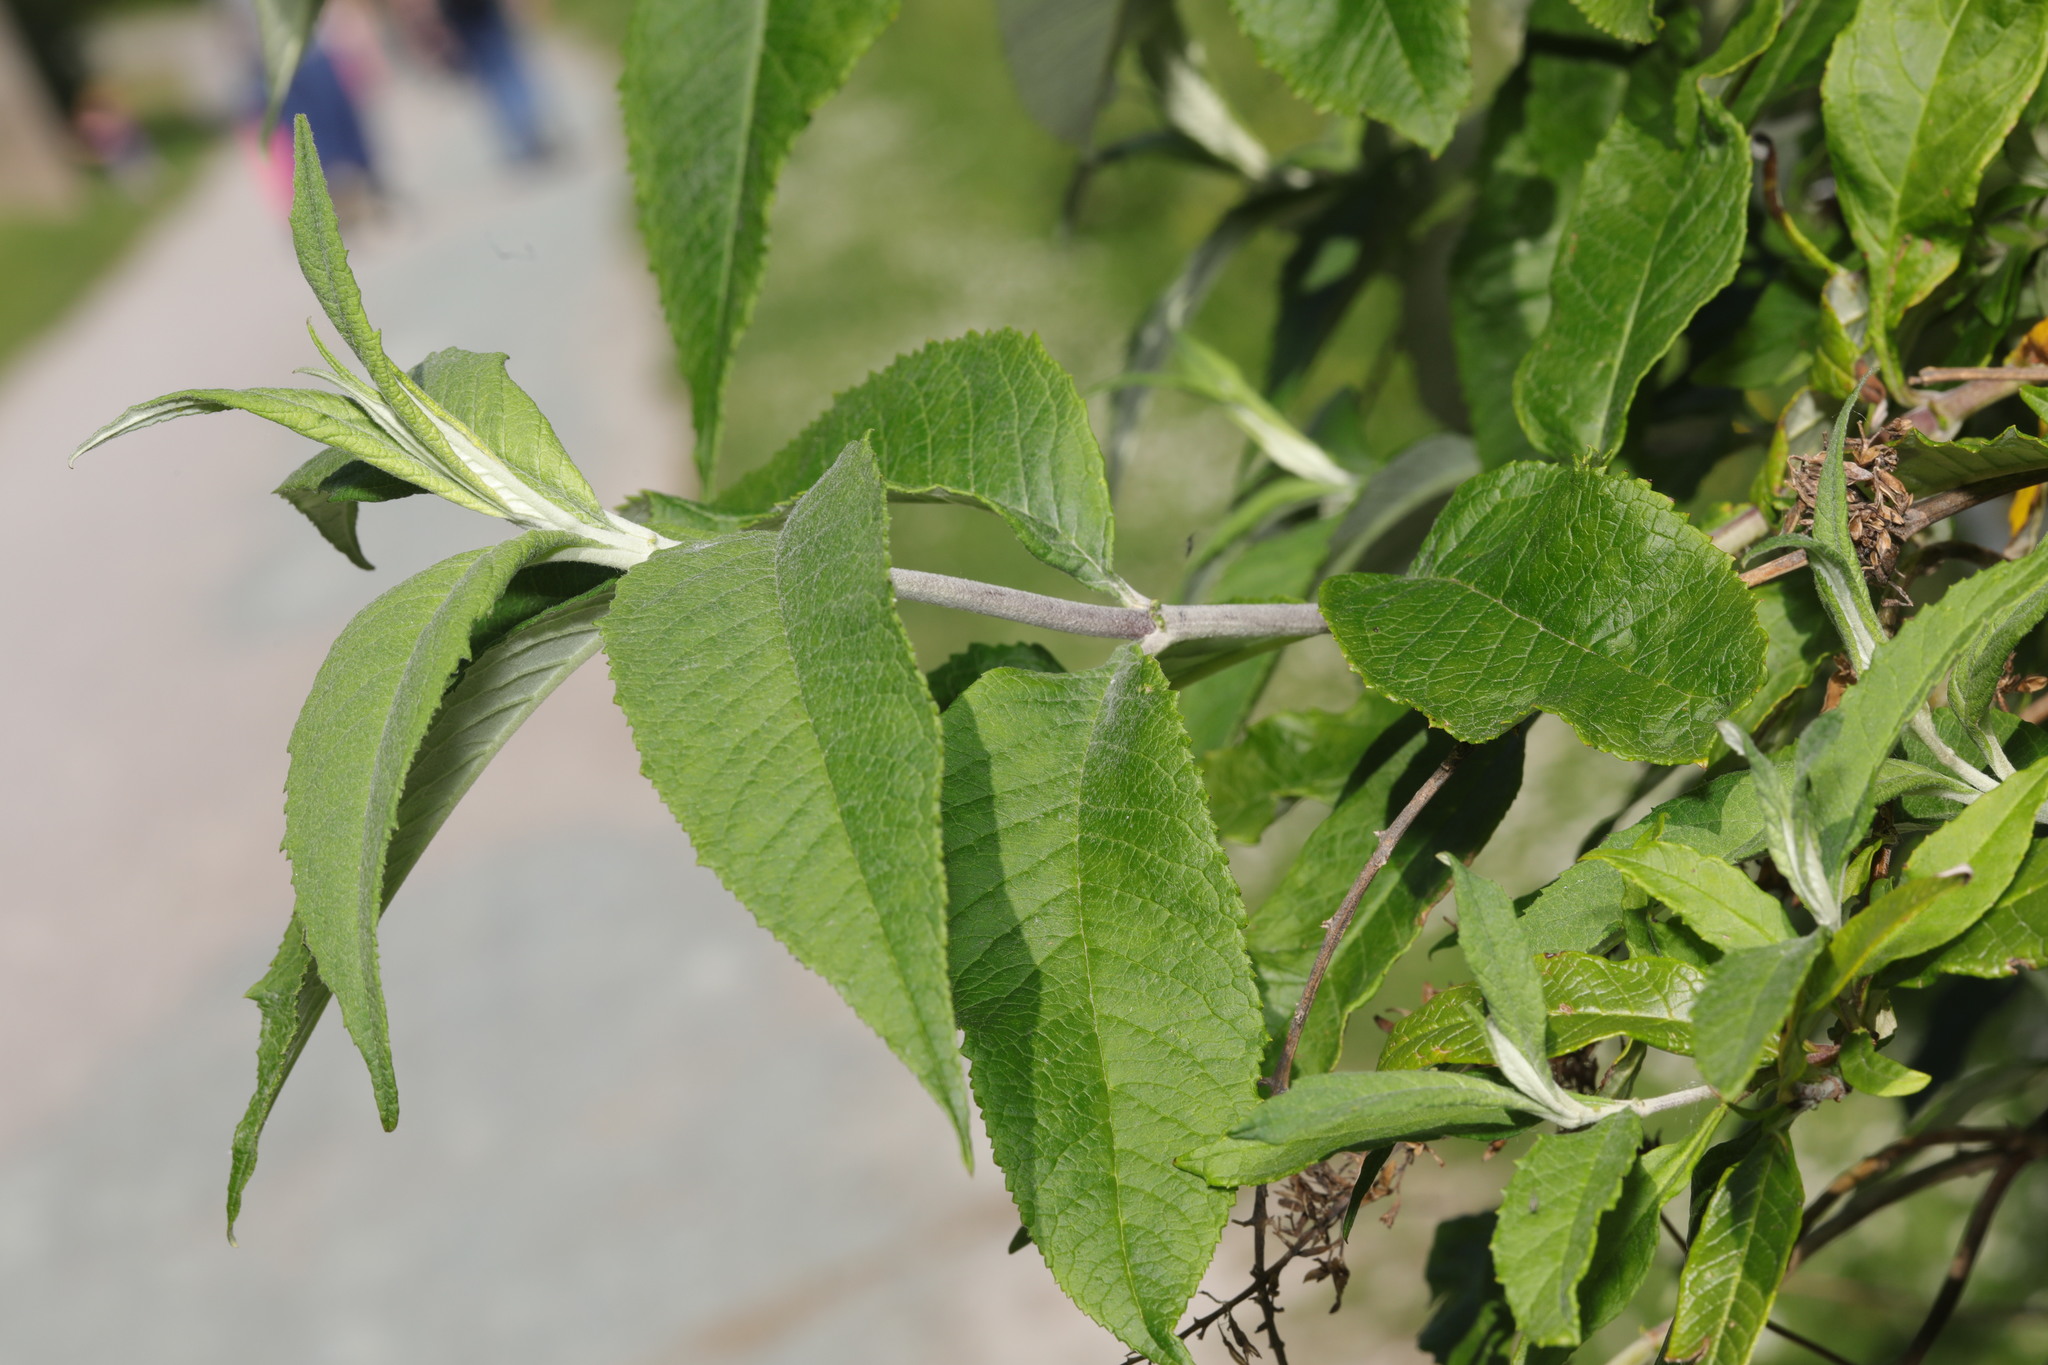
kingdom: Plantae
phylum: Tracheophyta
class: Magnoliopsida
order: Lamiales
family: Scrophulariaceae
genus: Buddleja
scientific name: Buddleja davidii
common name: Butterfly-bush
